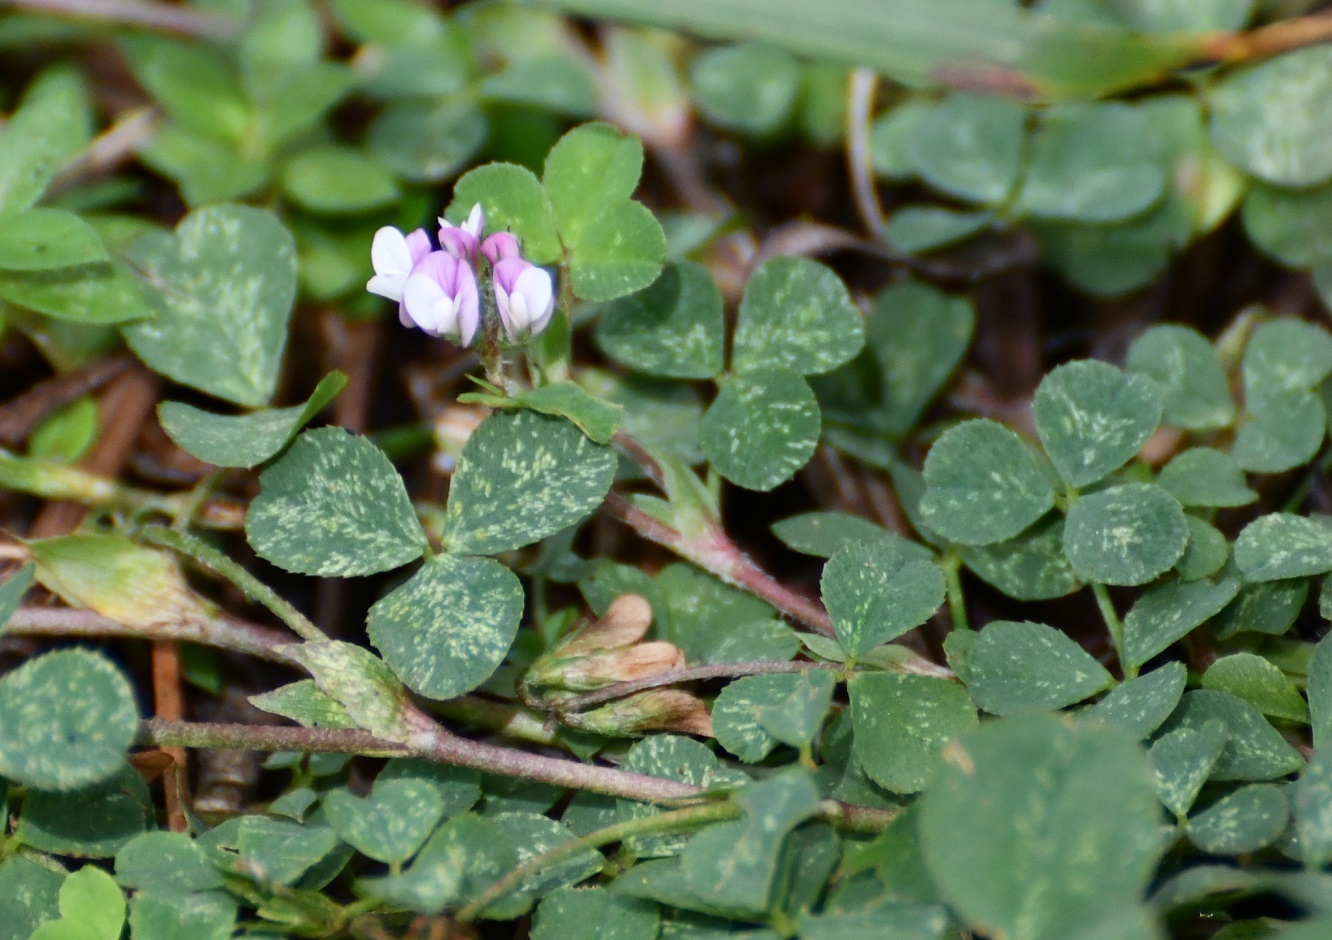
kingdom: Plantae
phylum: Tracheophyta
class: Magnoliopsida
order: Fabales
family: Fabaceae
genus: Trifolium
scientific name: Trifolium amabile
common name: Aztec clover
